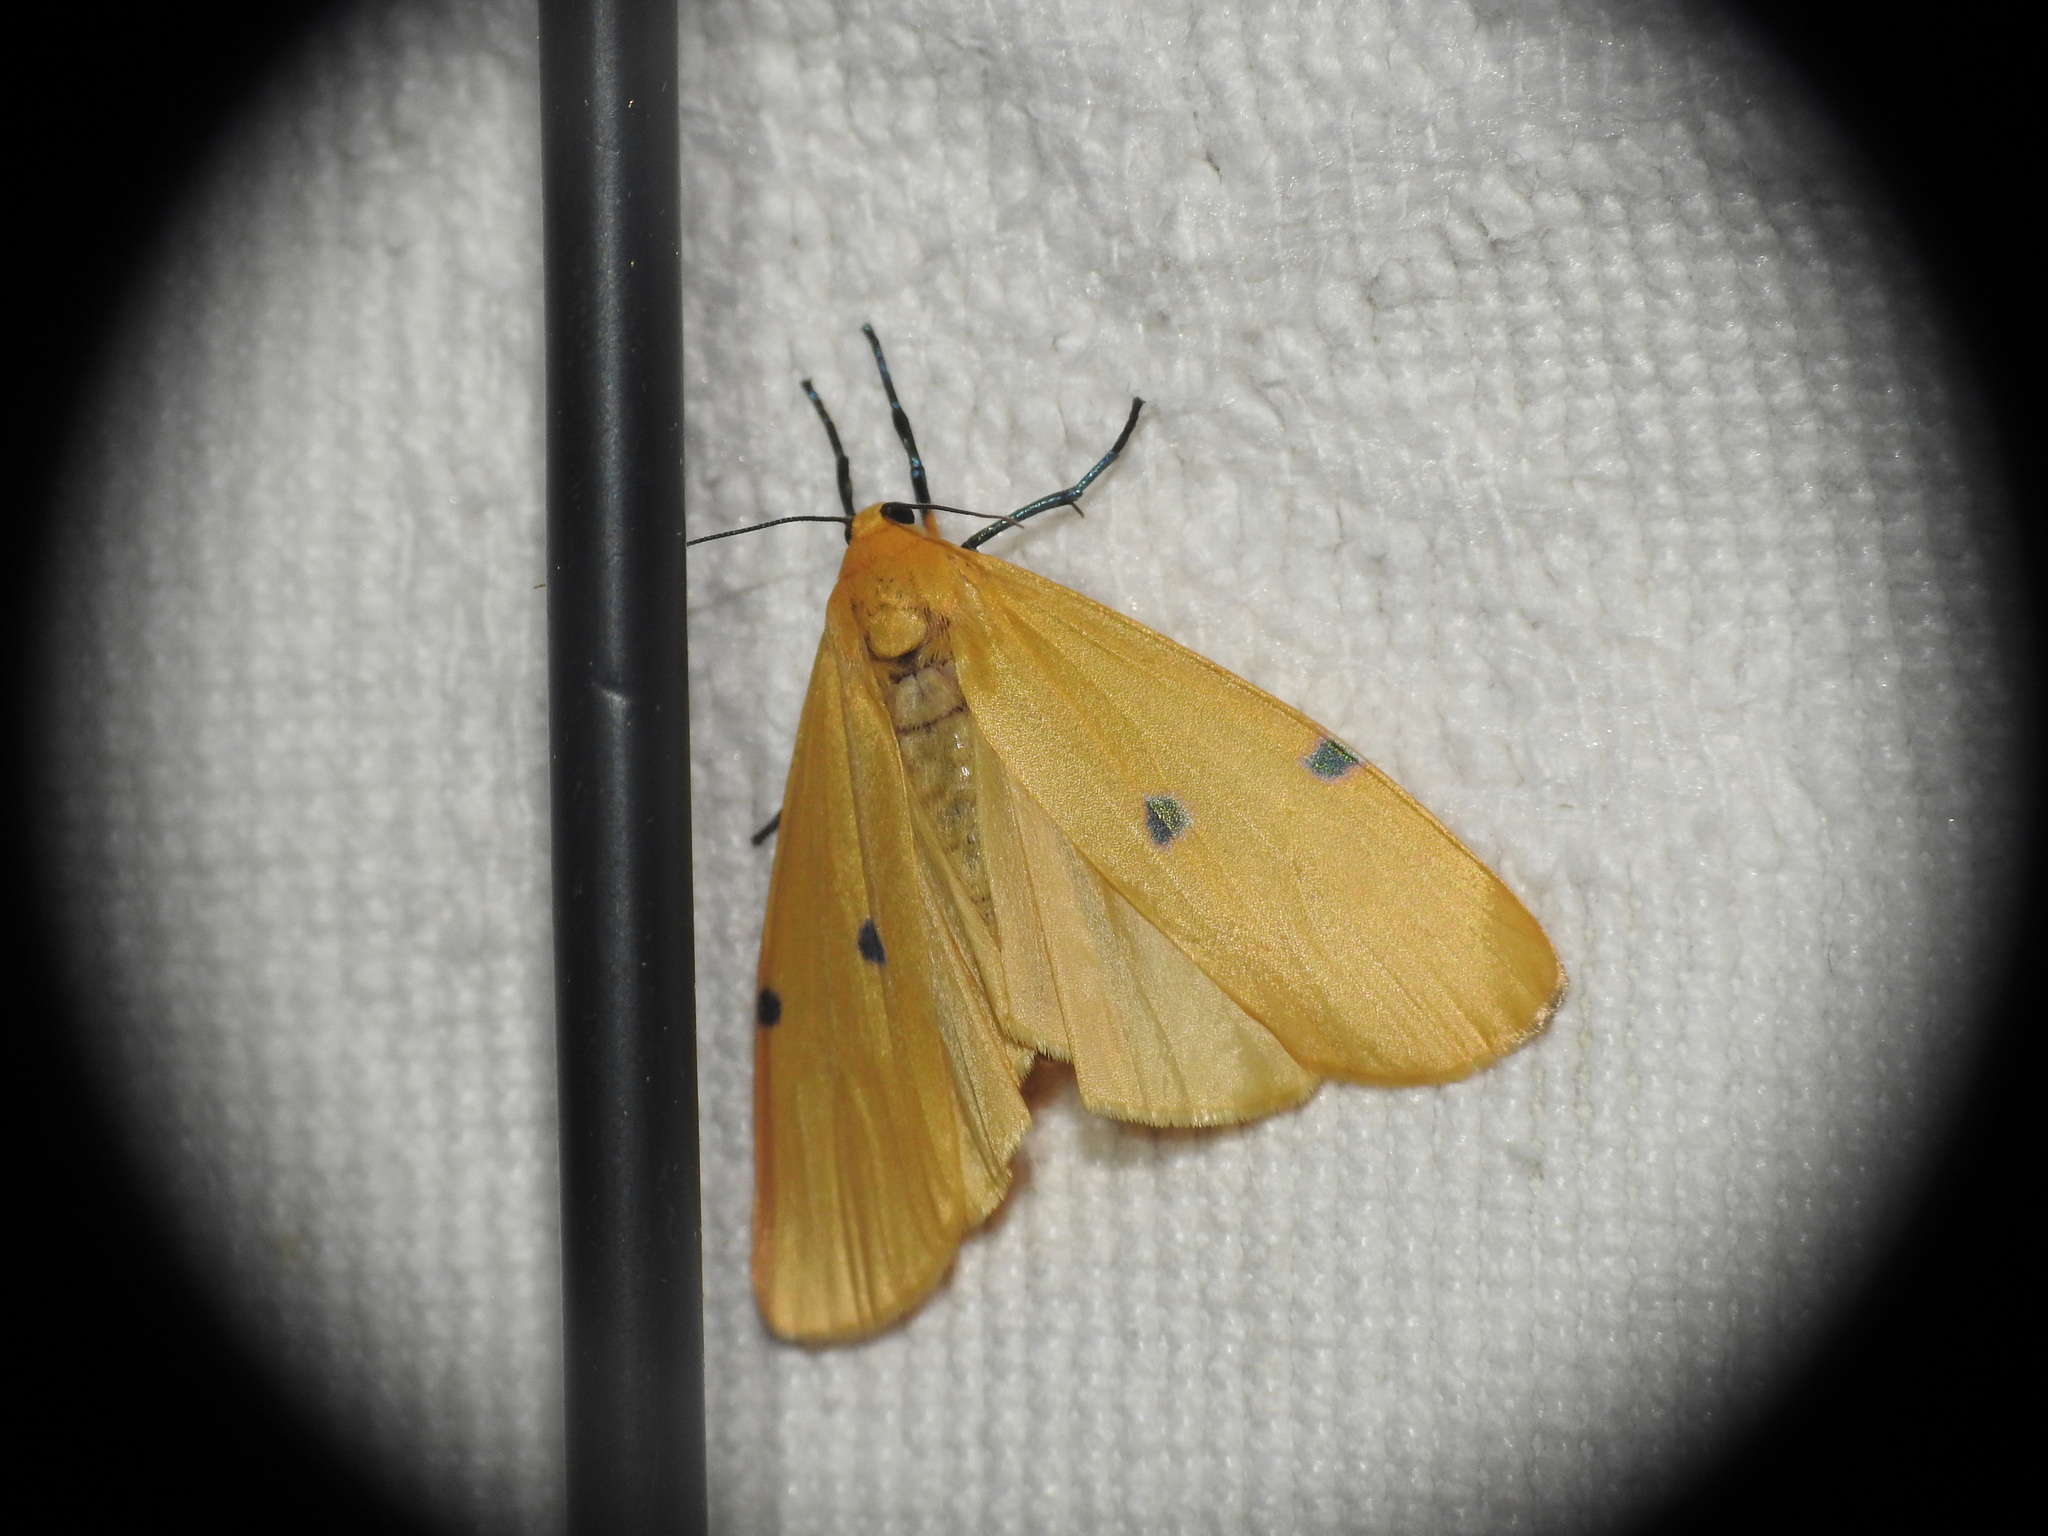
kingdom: Animalia
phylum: Arthropoda
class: Insecta
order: Lepidoptera
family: Erebidae
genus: Lithosia
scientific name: Lithosia quadra
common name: Four-spotted footman
